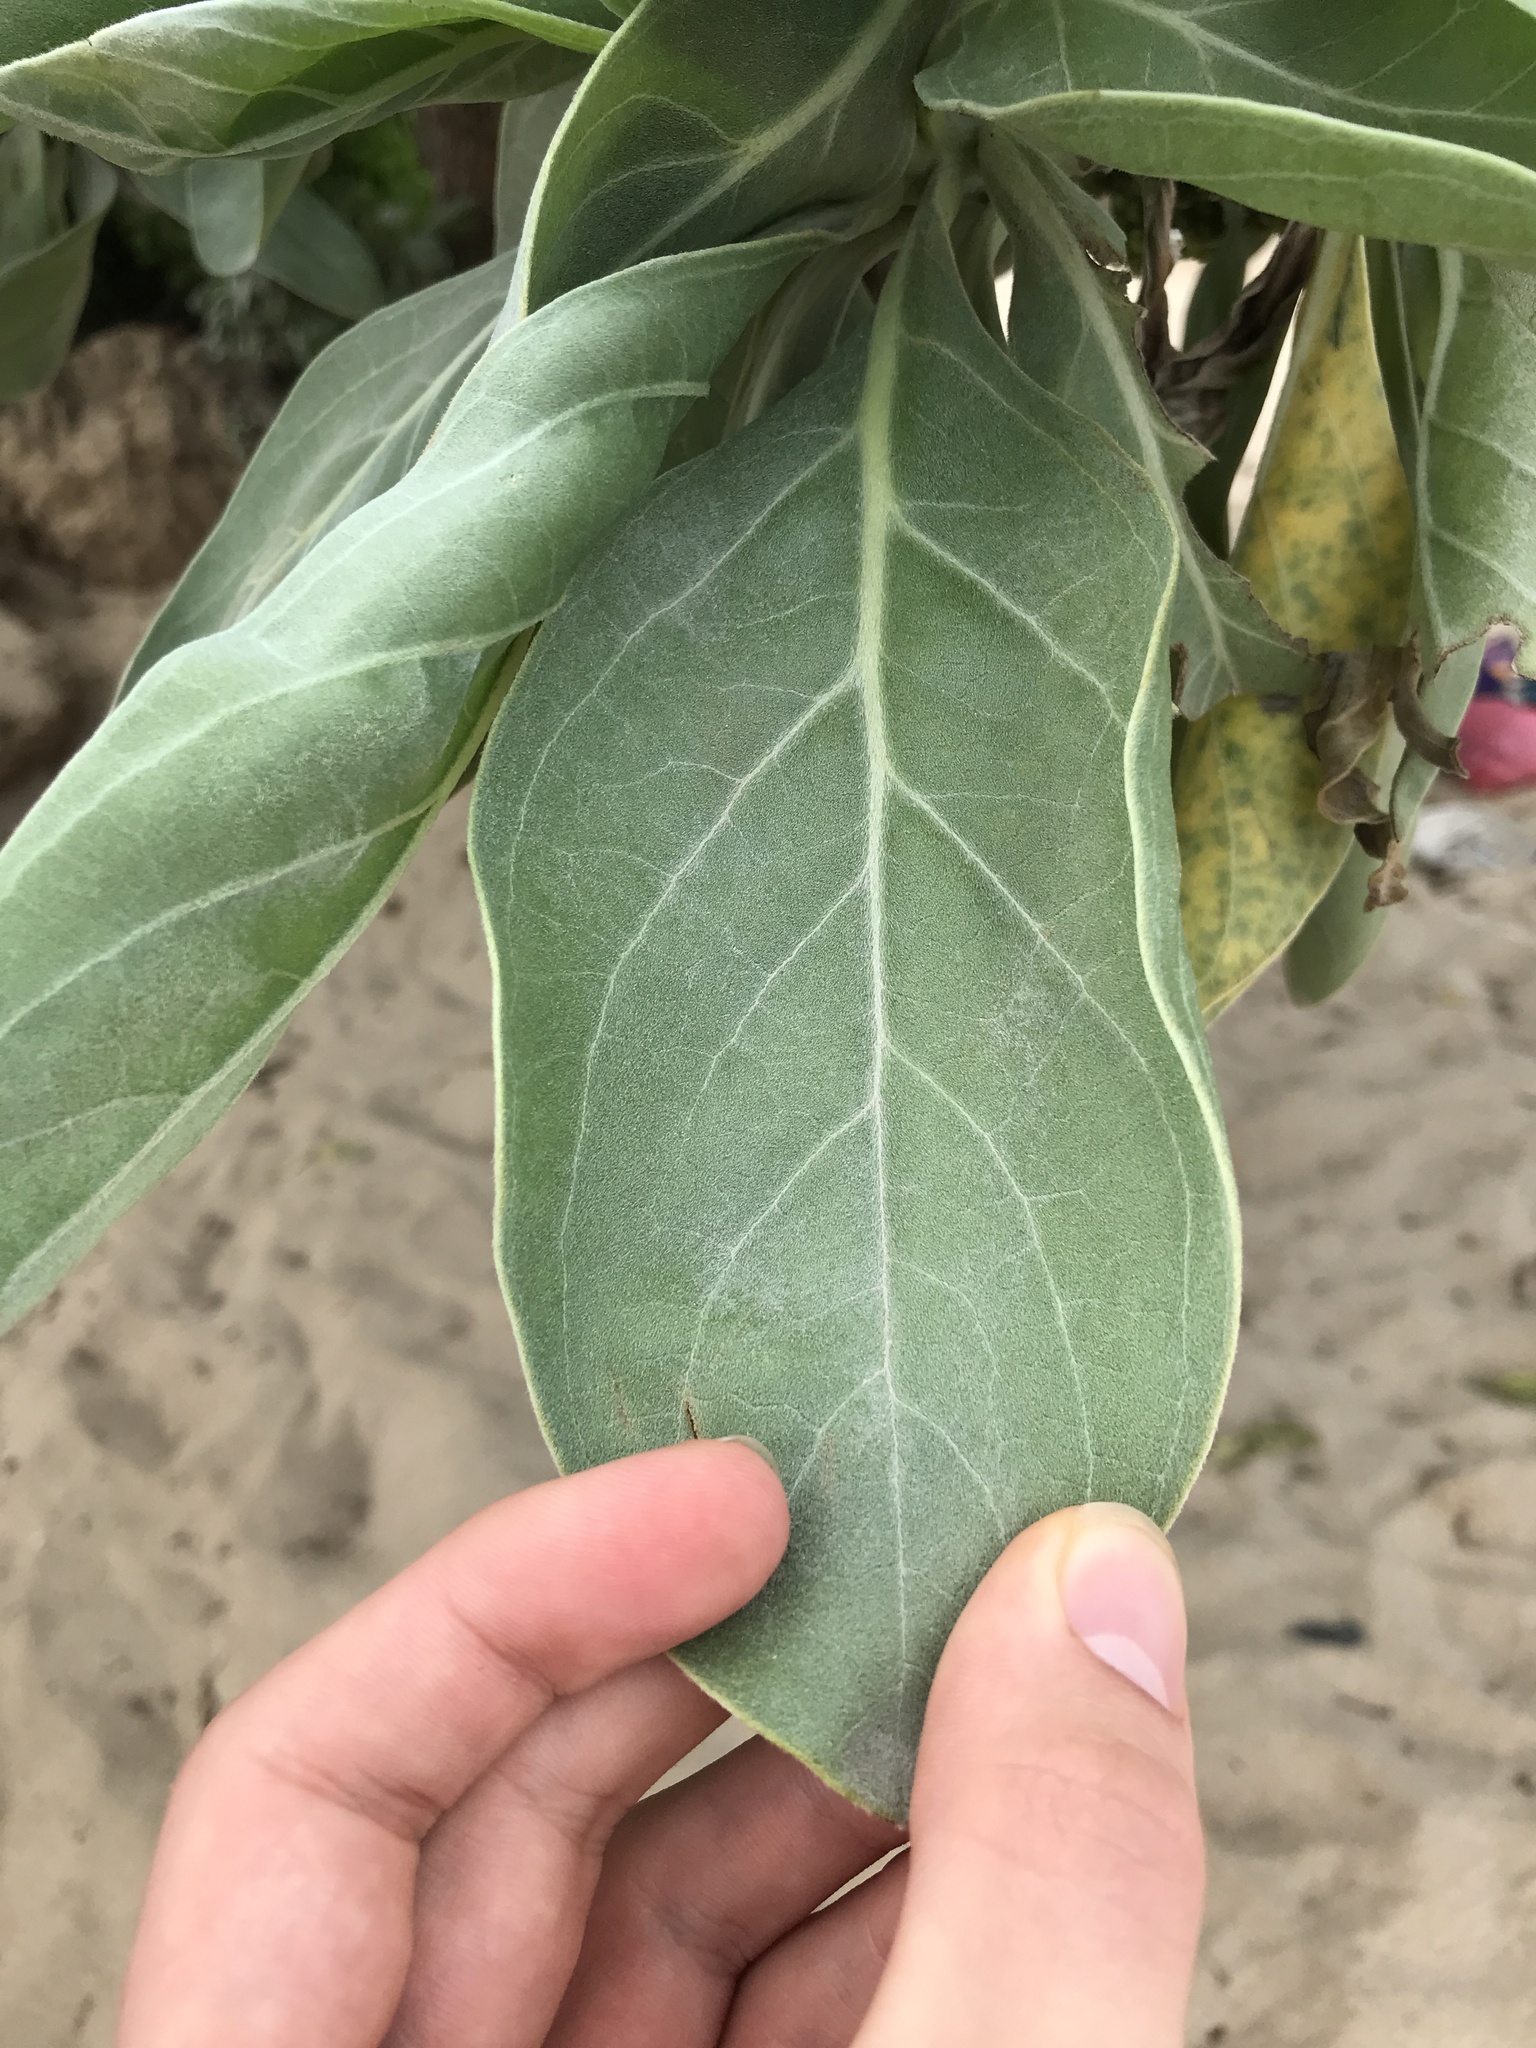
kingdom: Plantae
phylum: Tracheophyta
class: Magnoliopsida
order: Boraginales
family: Heliotropiaceae
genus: Heliotropium
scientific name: Heliotropium velutinum
